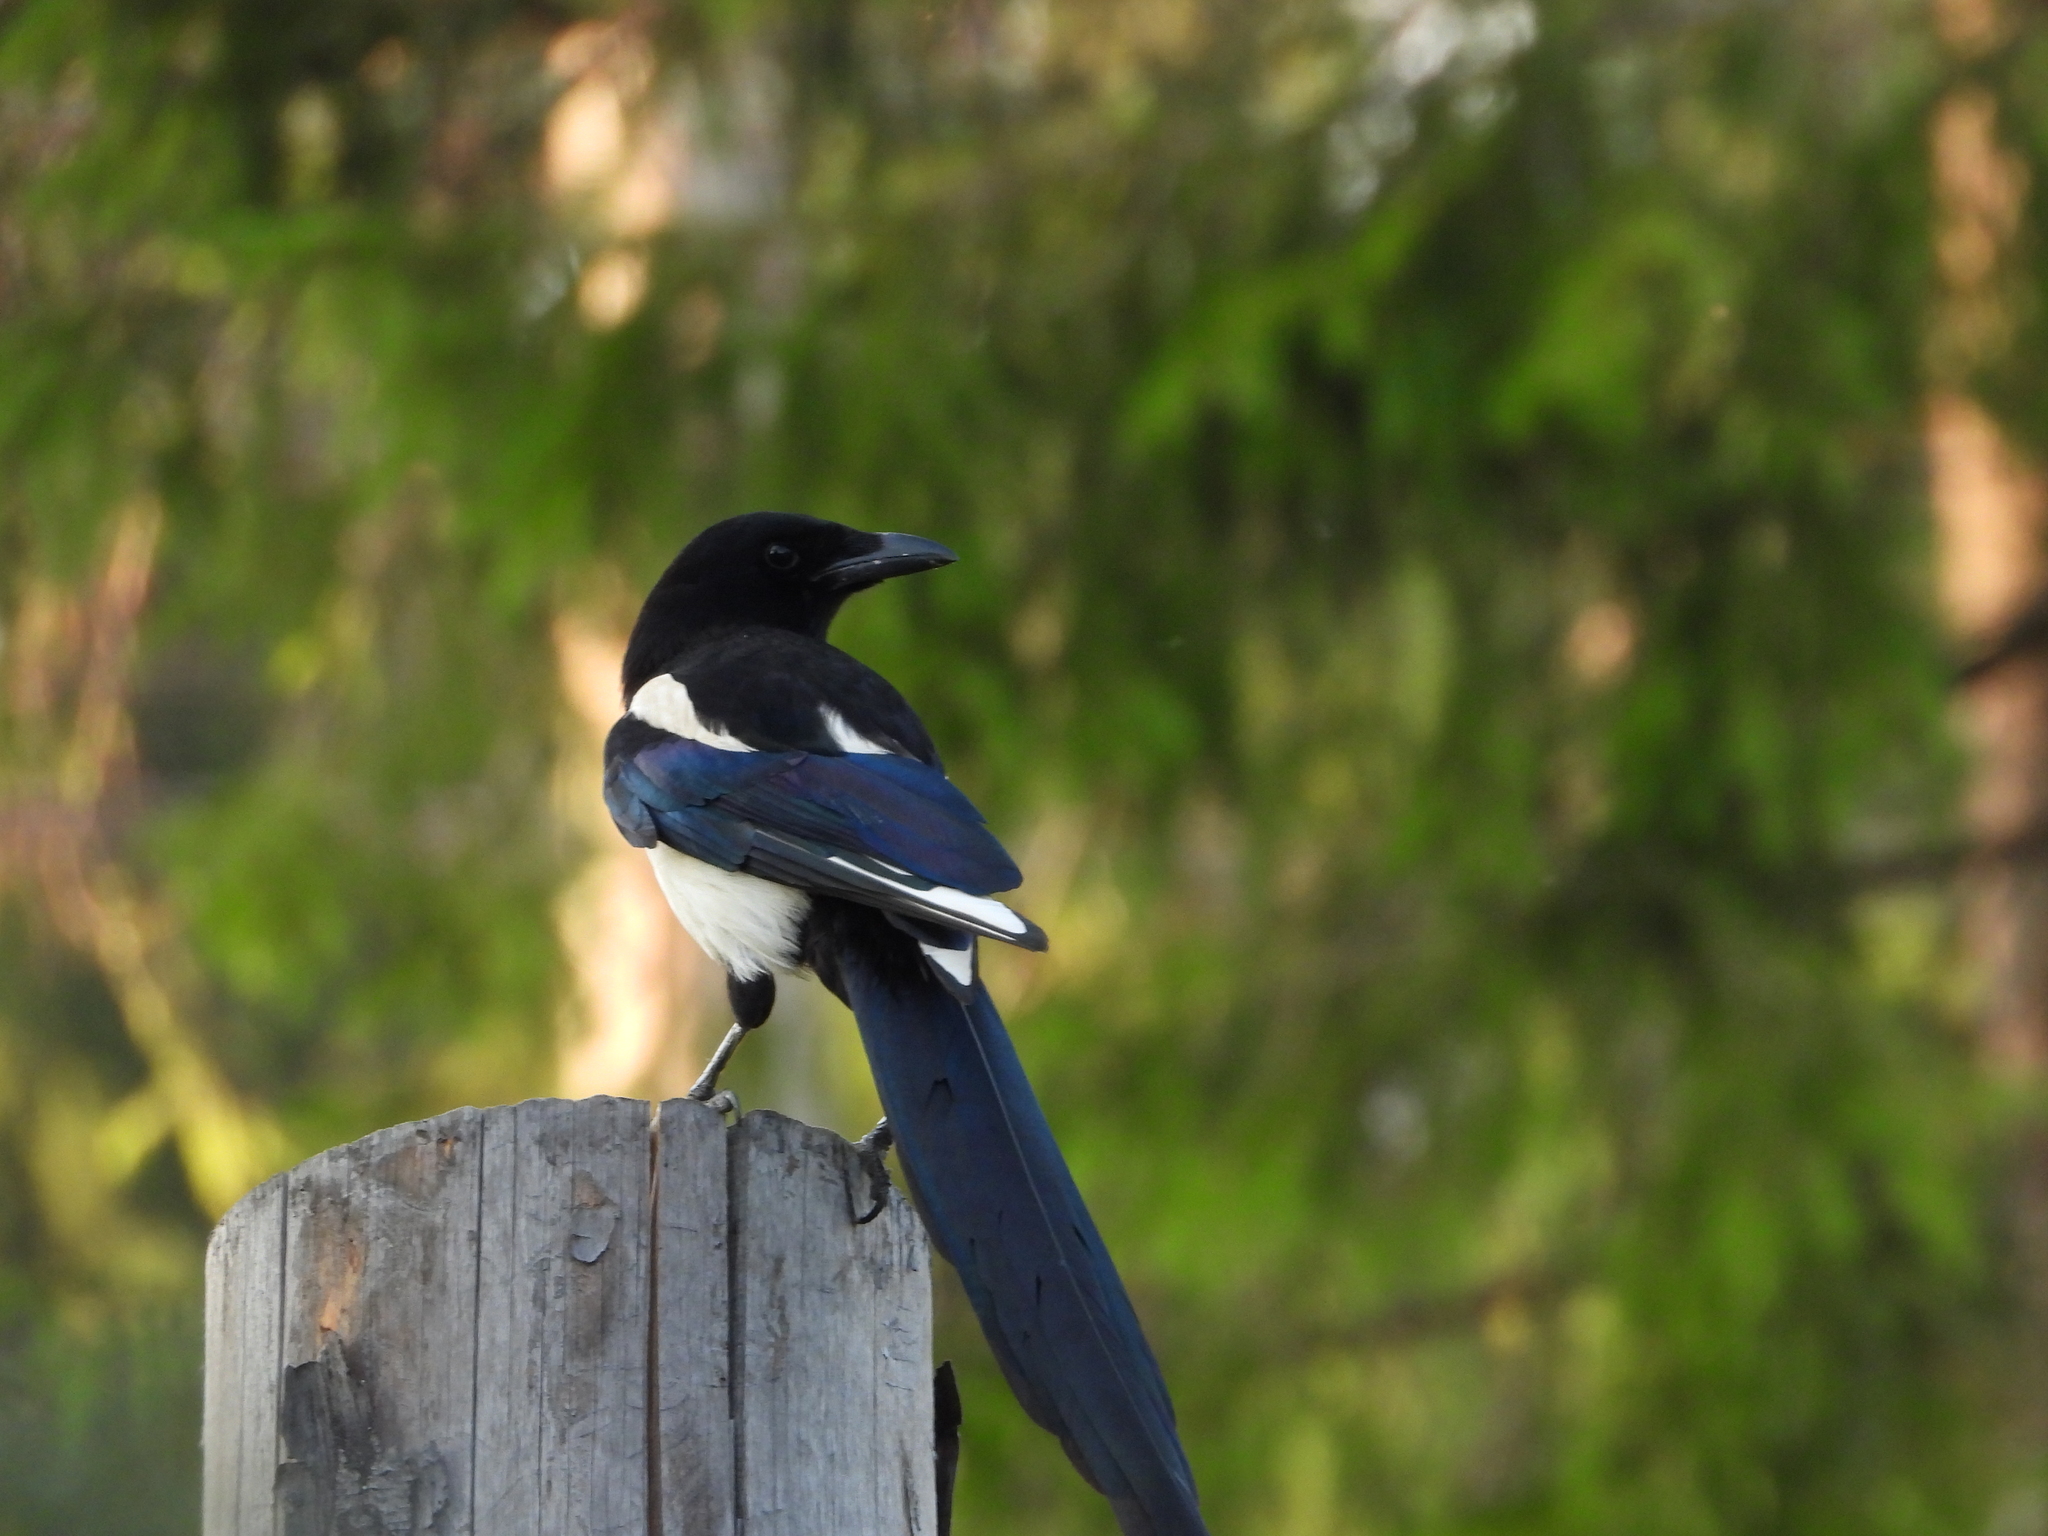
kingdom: Animalia
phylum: Chordata
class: Aves
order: Passeriformes
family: Corvidae
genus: Pica
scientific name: Pica pica
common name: Eurasian magpie
